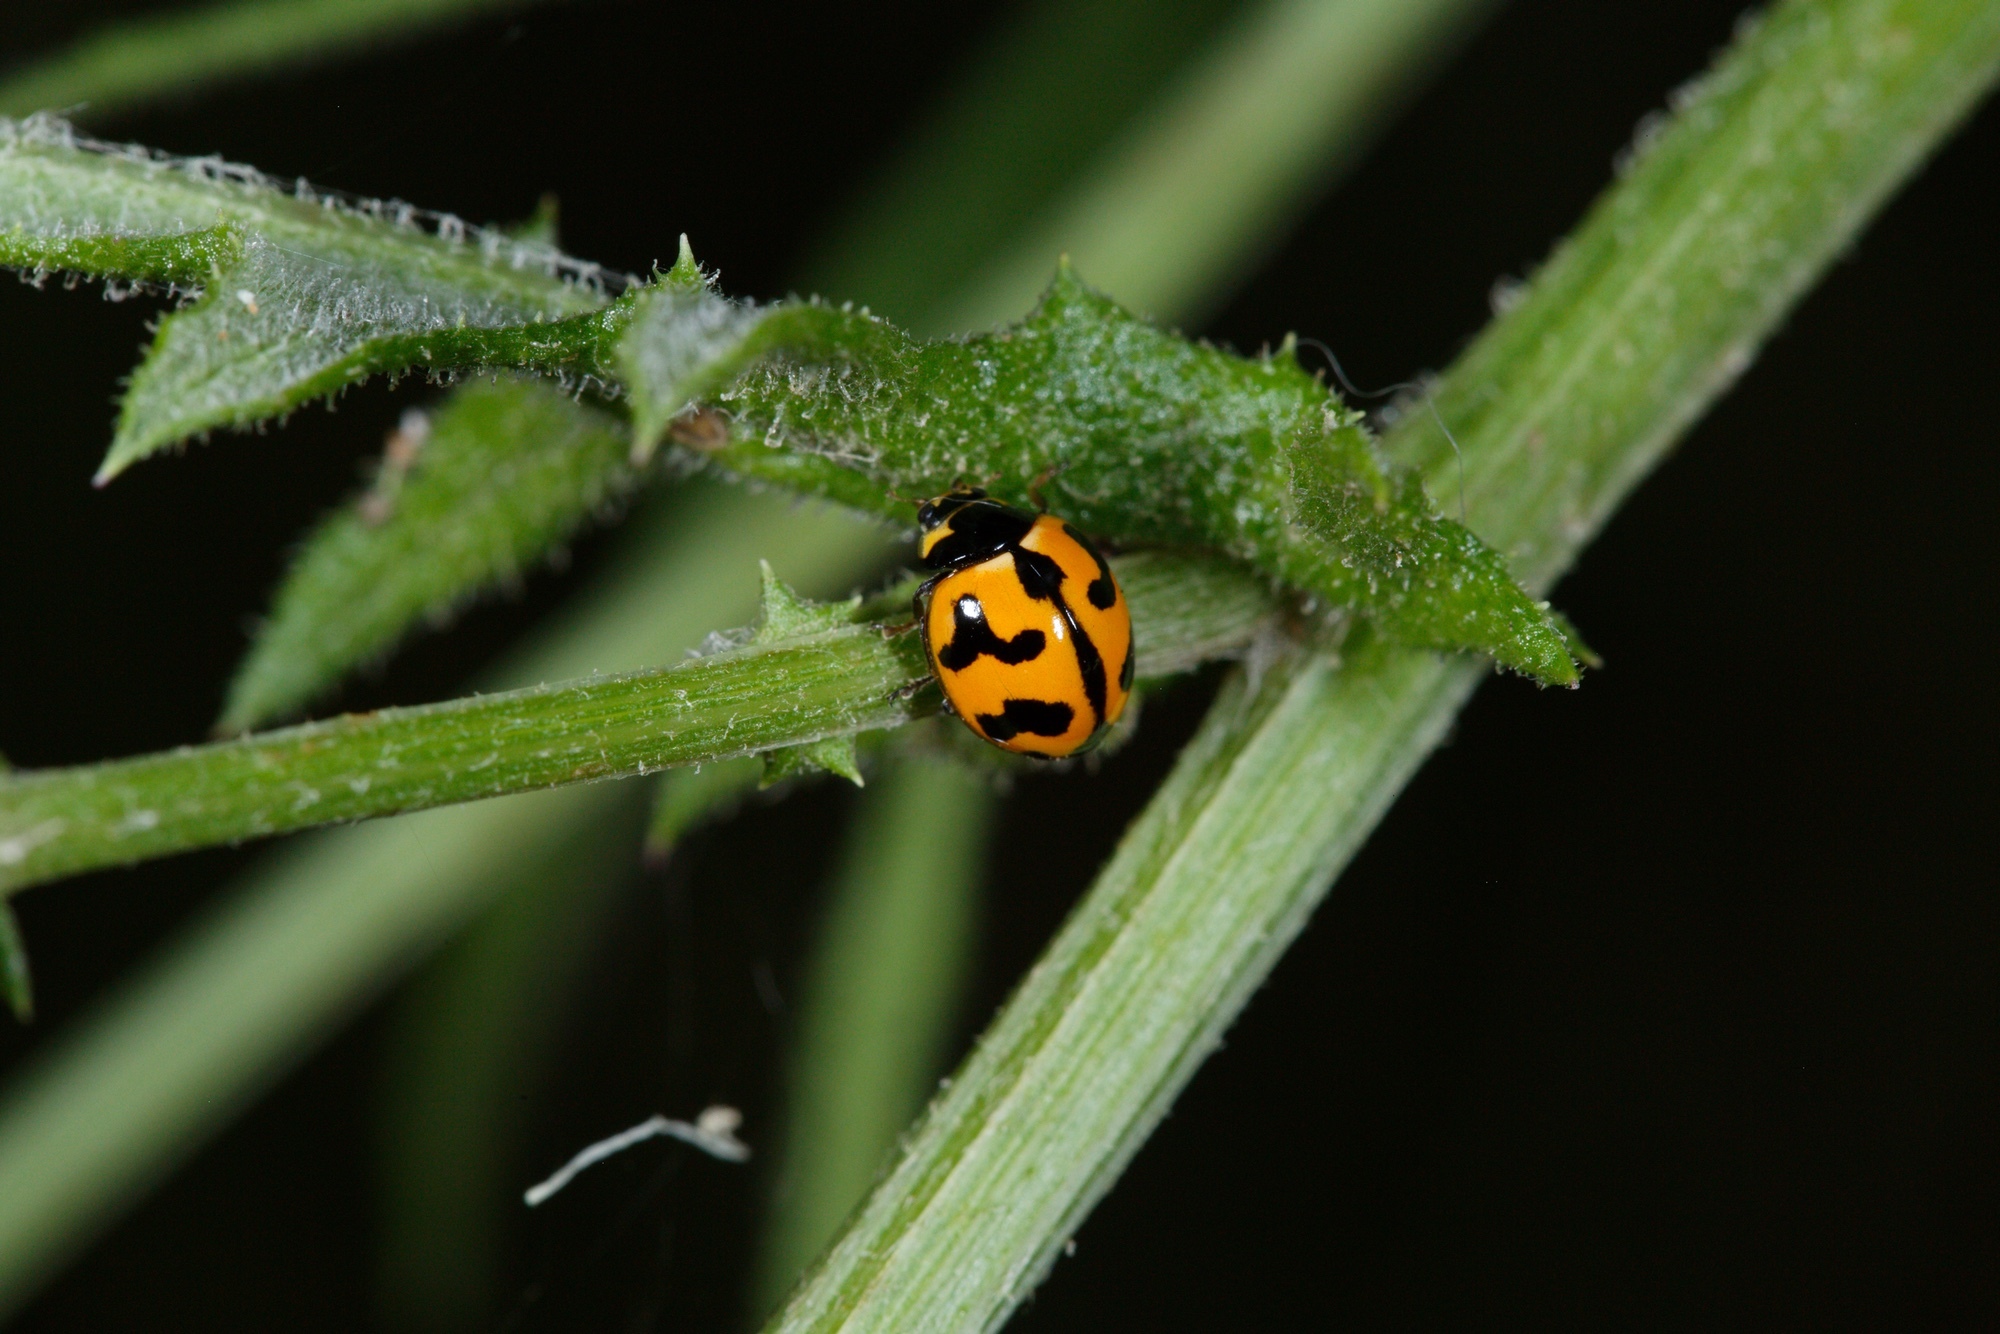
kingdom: Animalia
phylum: Arthropoda
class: Insecta
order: Coleoptera
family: Coccinellidae
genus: Coccinella
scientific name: Coccinella transversalis
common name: Transverse lady beetle
